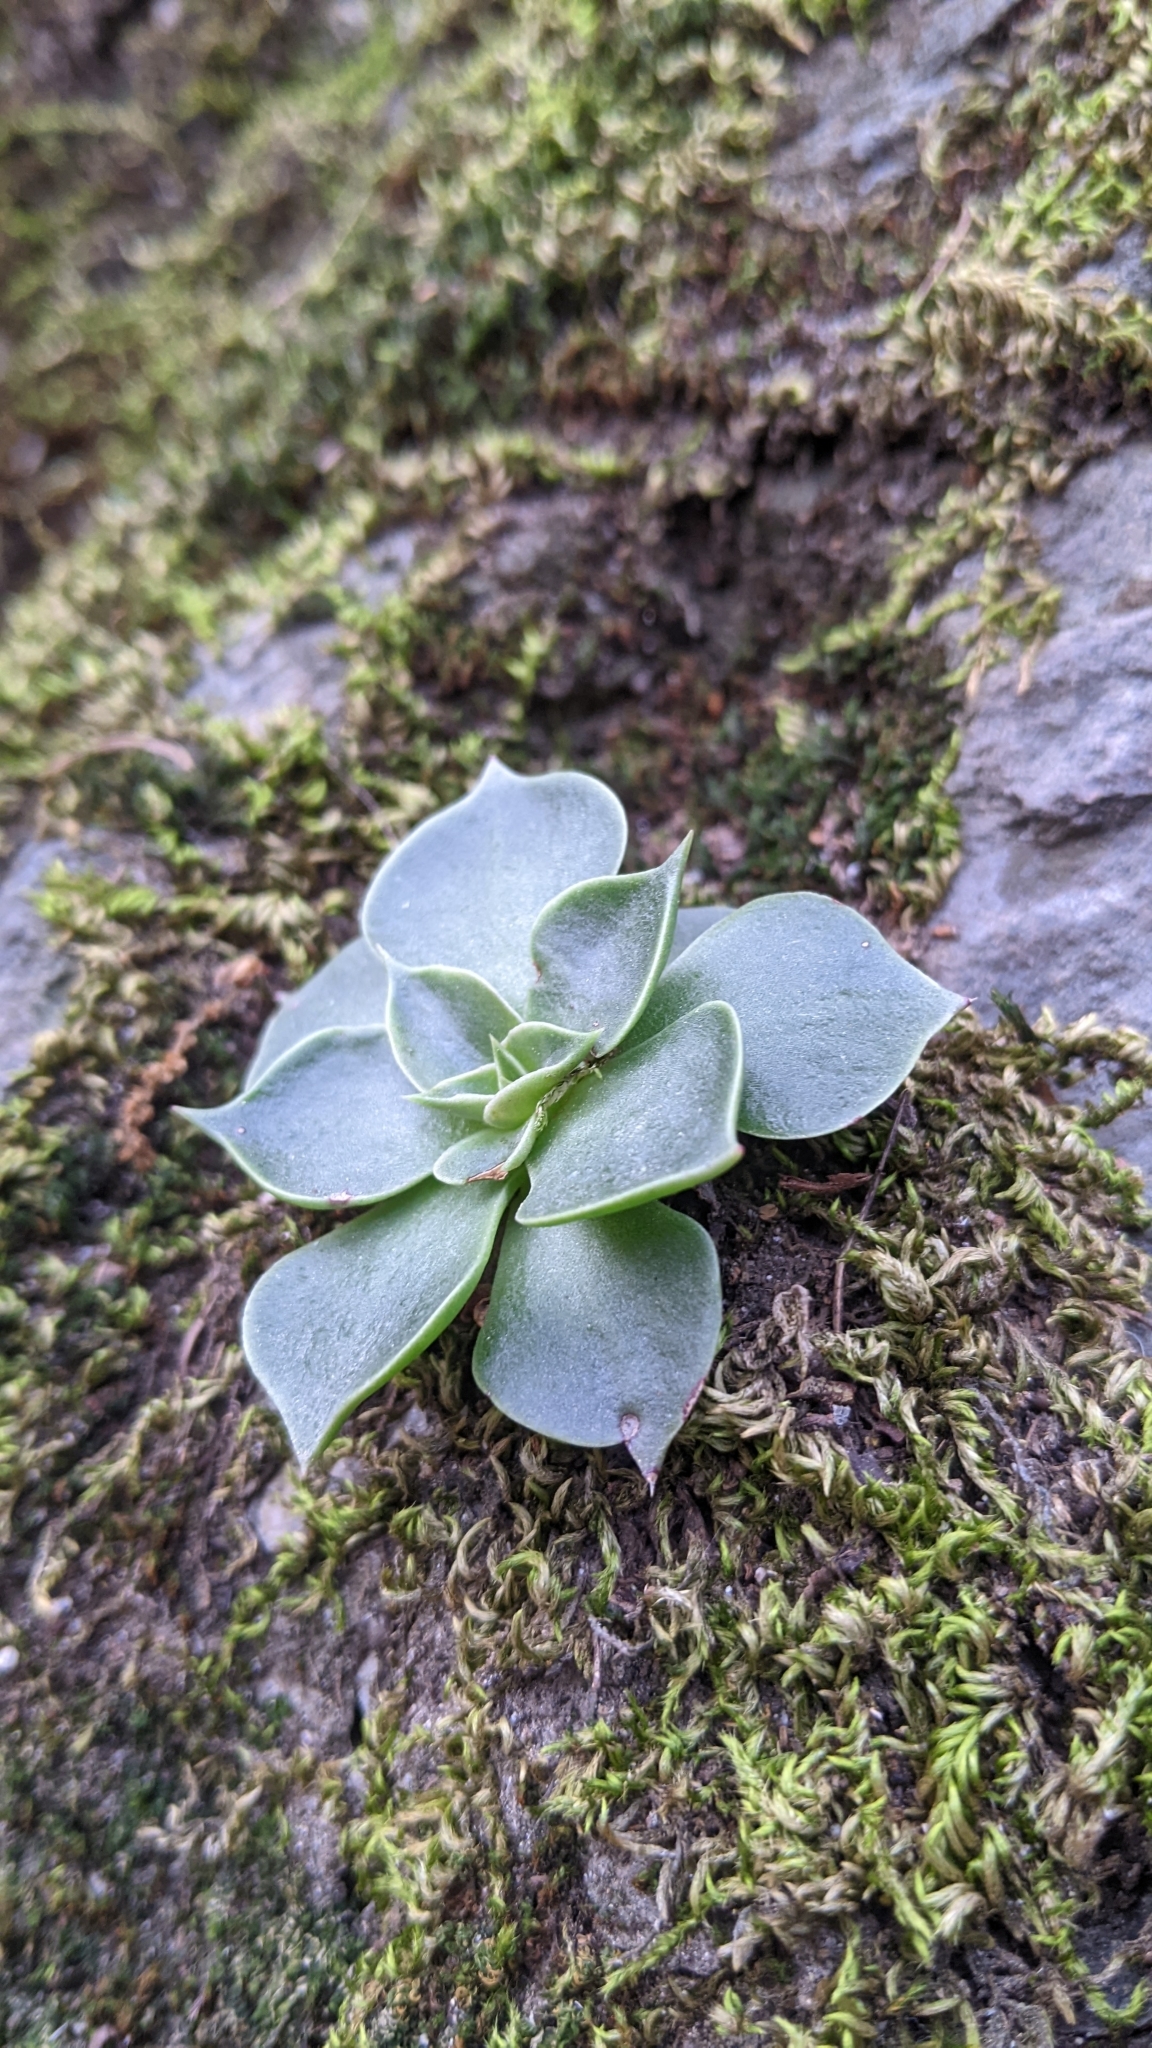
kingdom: Plantae
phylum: Tracheophyta
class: Magnoliopsida
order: Saxifragales
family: Crassulaceae
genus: Dudleya
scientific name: Dudleya cymosa
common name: Canyon dudleya
